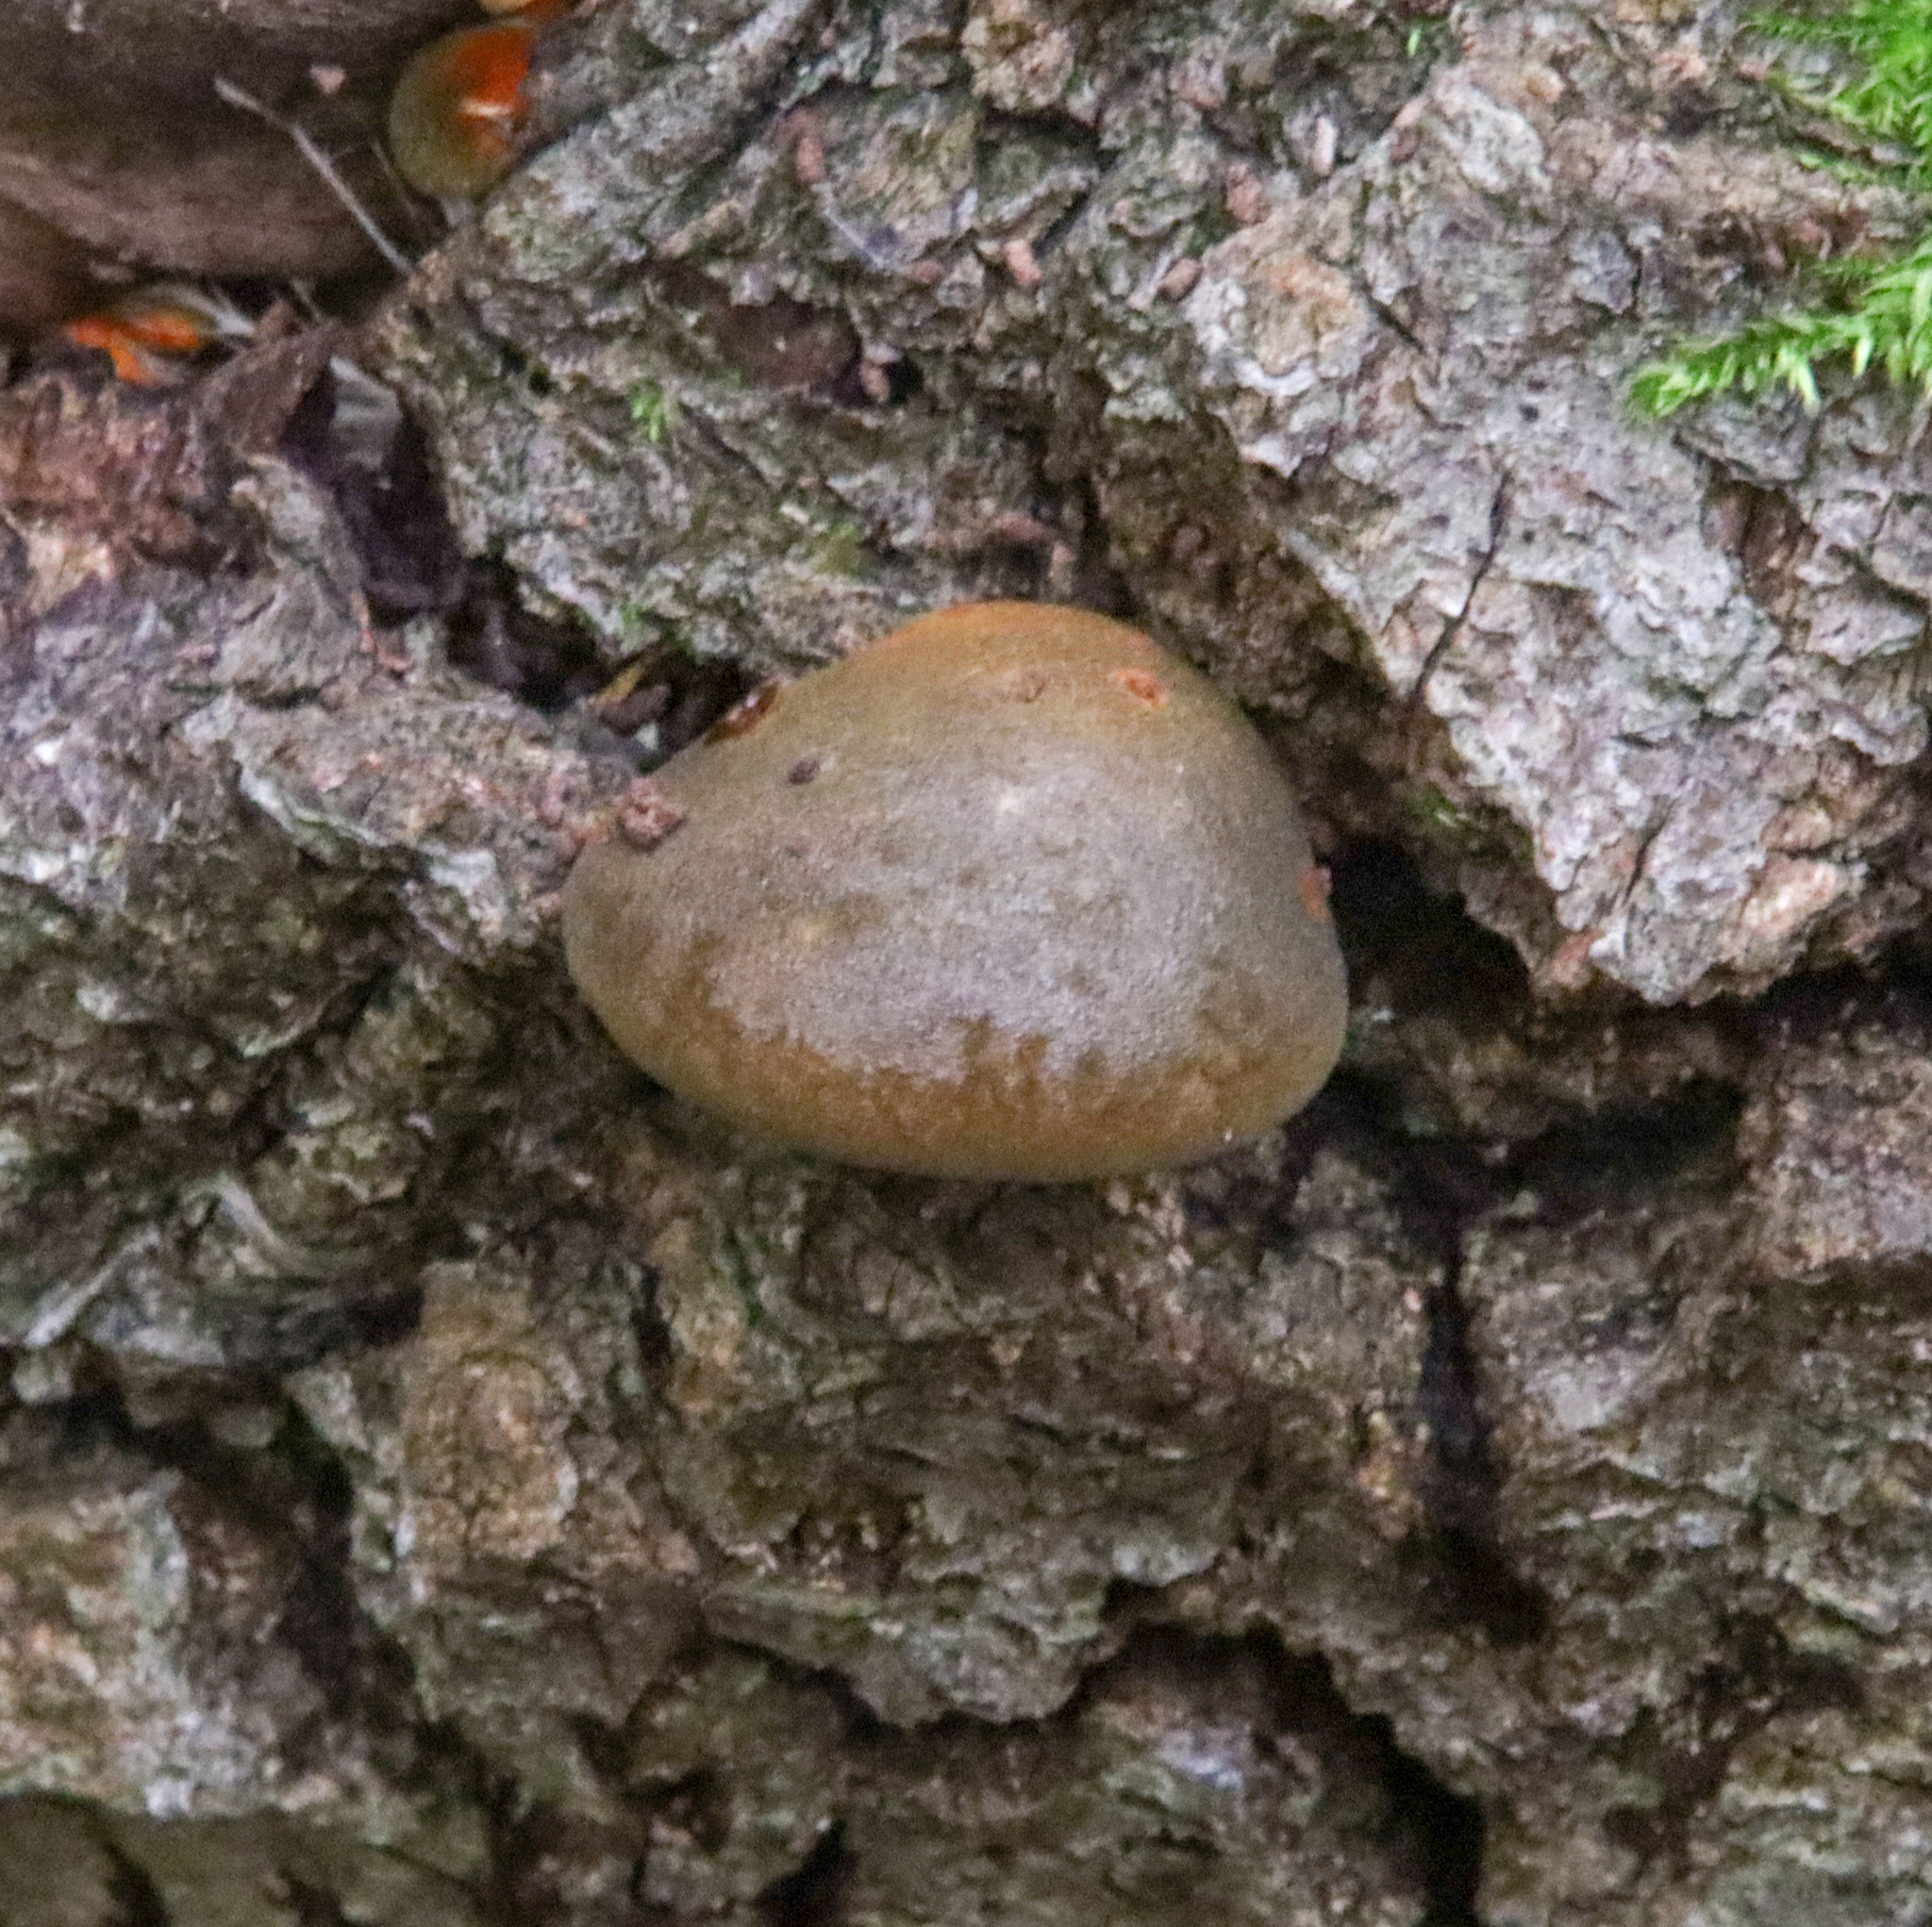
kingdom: Fungi
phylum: Basidiomycota
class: Agaricomycetes
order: Agaricales
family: Sarcomyxaceae
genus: Sarcomyxa
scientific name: Sarcomyxa serotina
